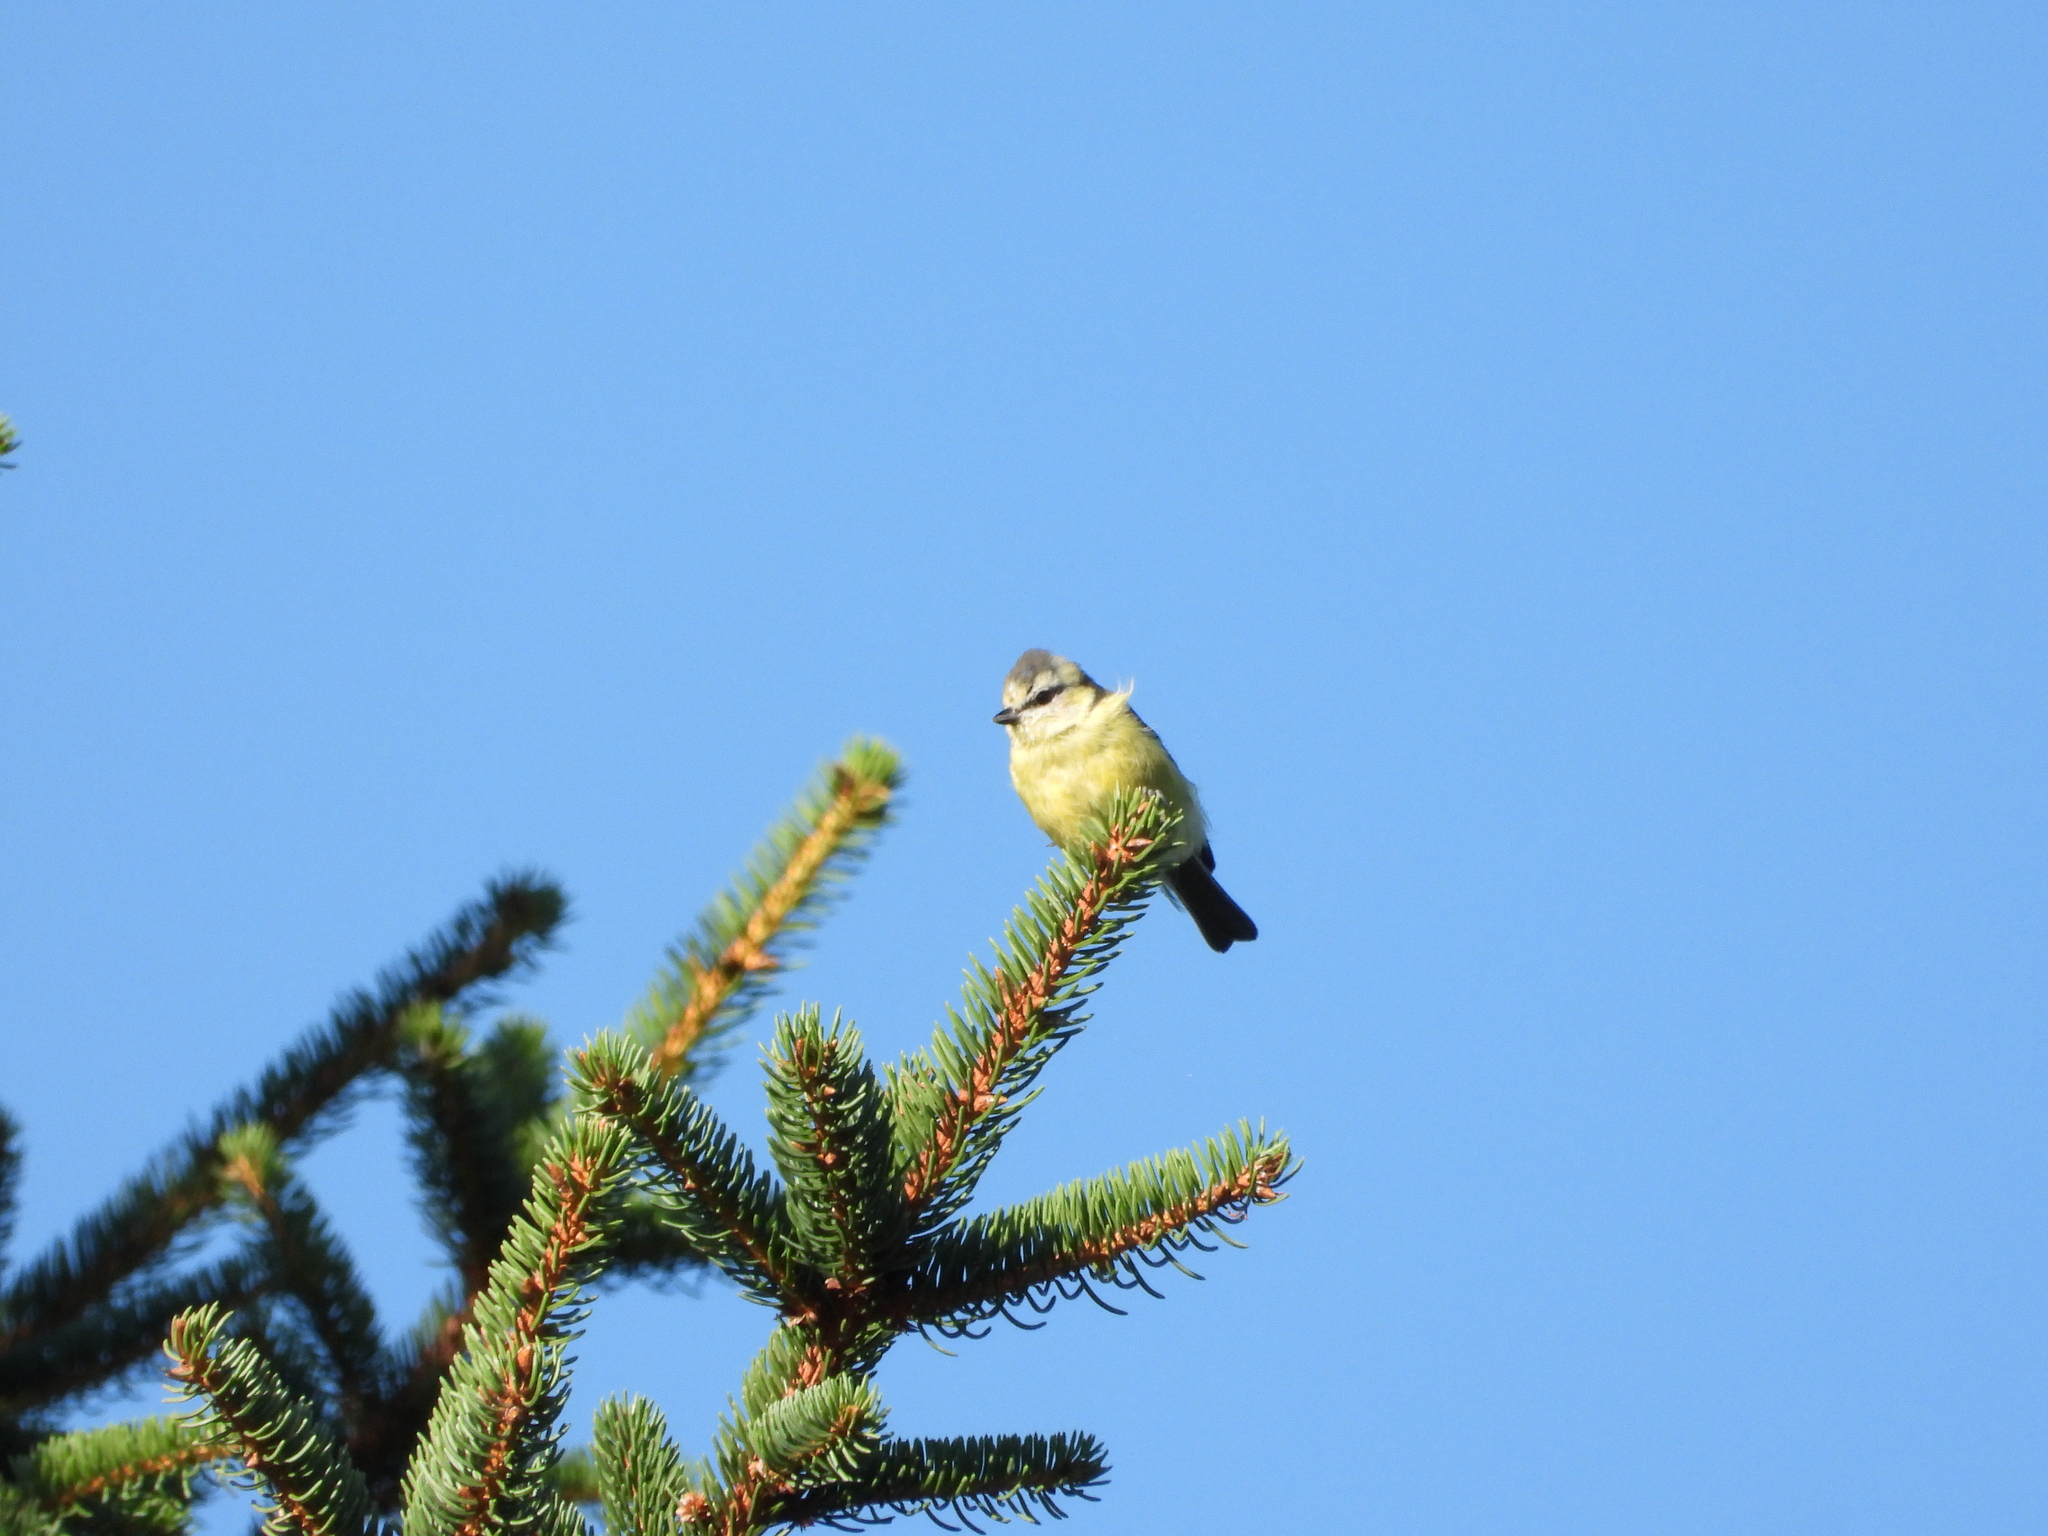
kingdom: Animalia
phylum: Chordata
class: Aves
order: Passeriformes
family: Paridae
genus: Cyanistes
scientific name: Cyanistes caeruleus
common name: Eurasian blue tit
